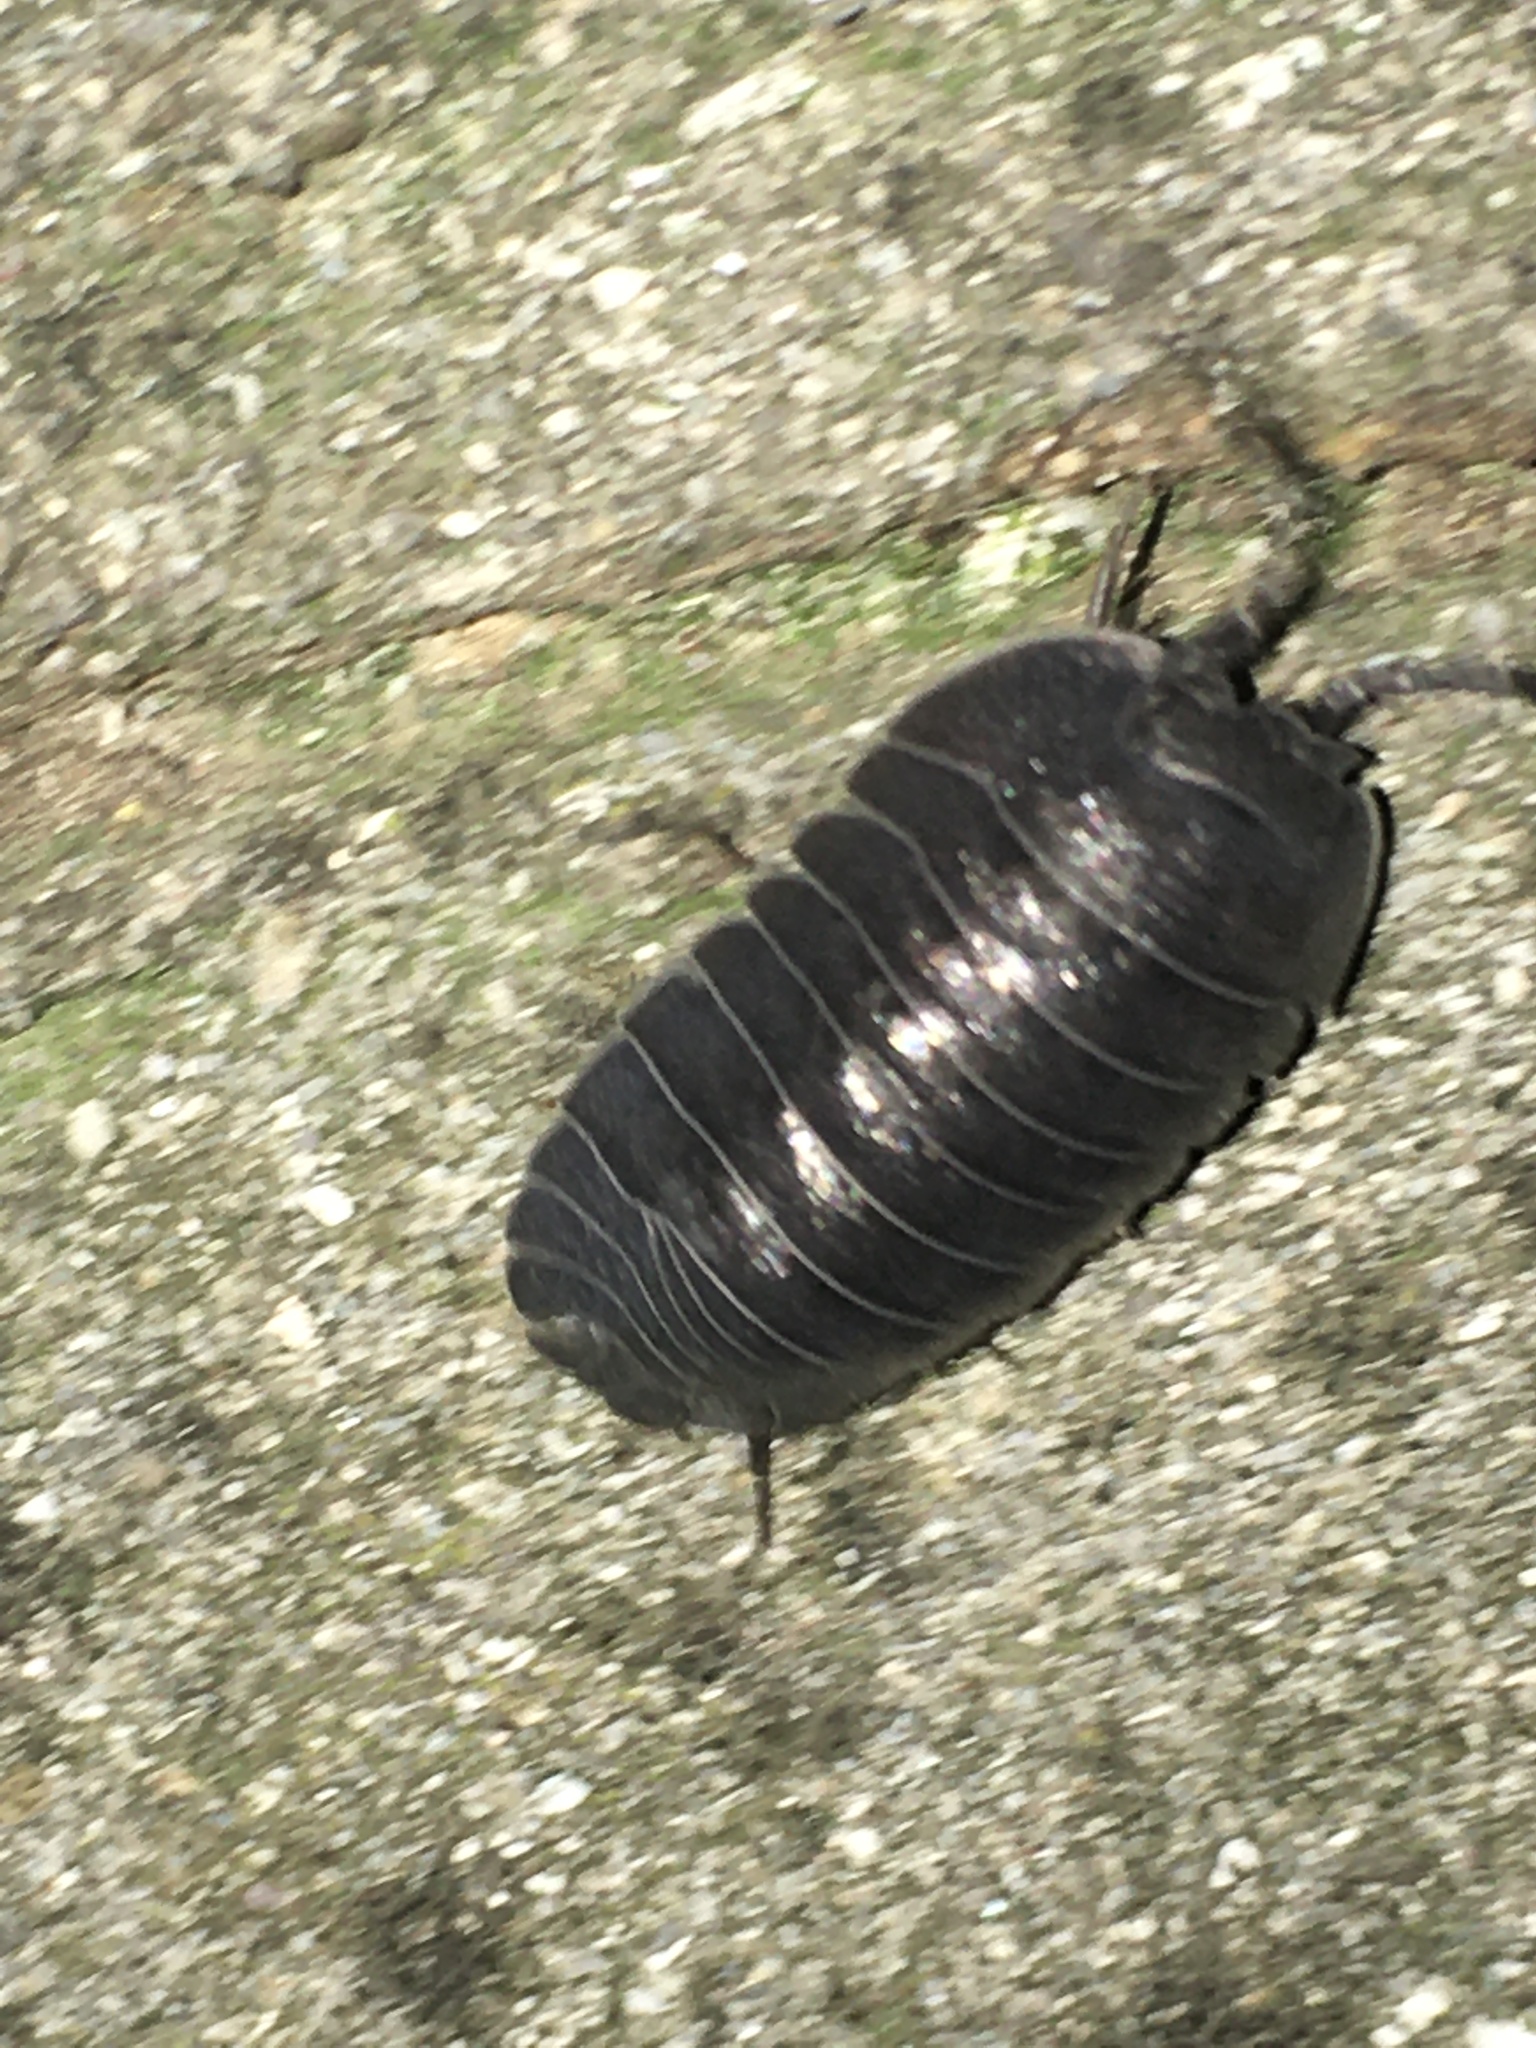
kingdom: Animalia
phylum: Arthropoda
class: Malacostraca
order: Isopoda
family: Armadillidiidae
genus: Armadillidium
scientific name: Armadillidium pallasii
